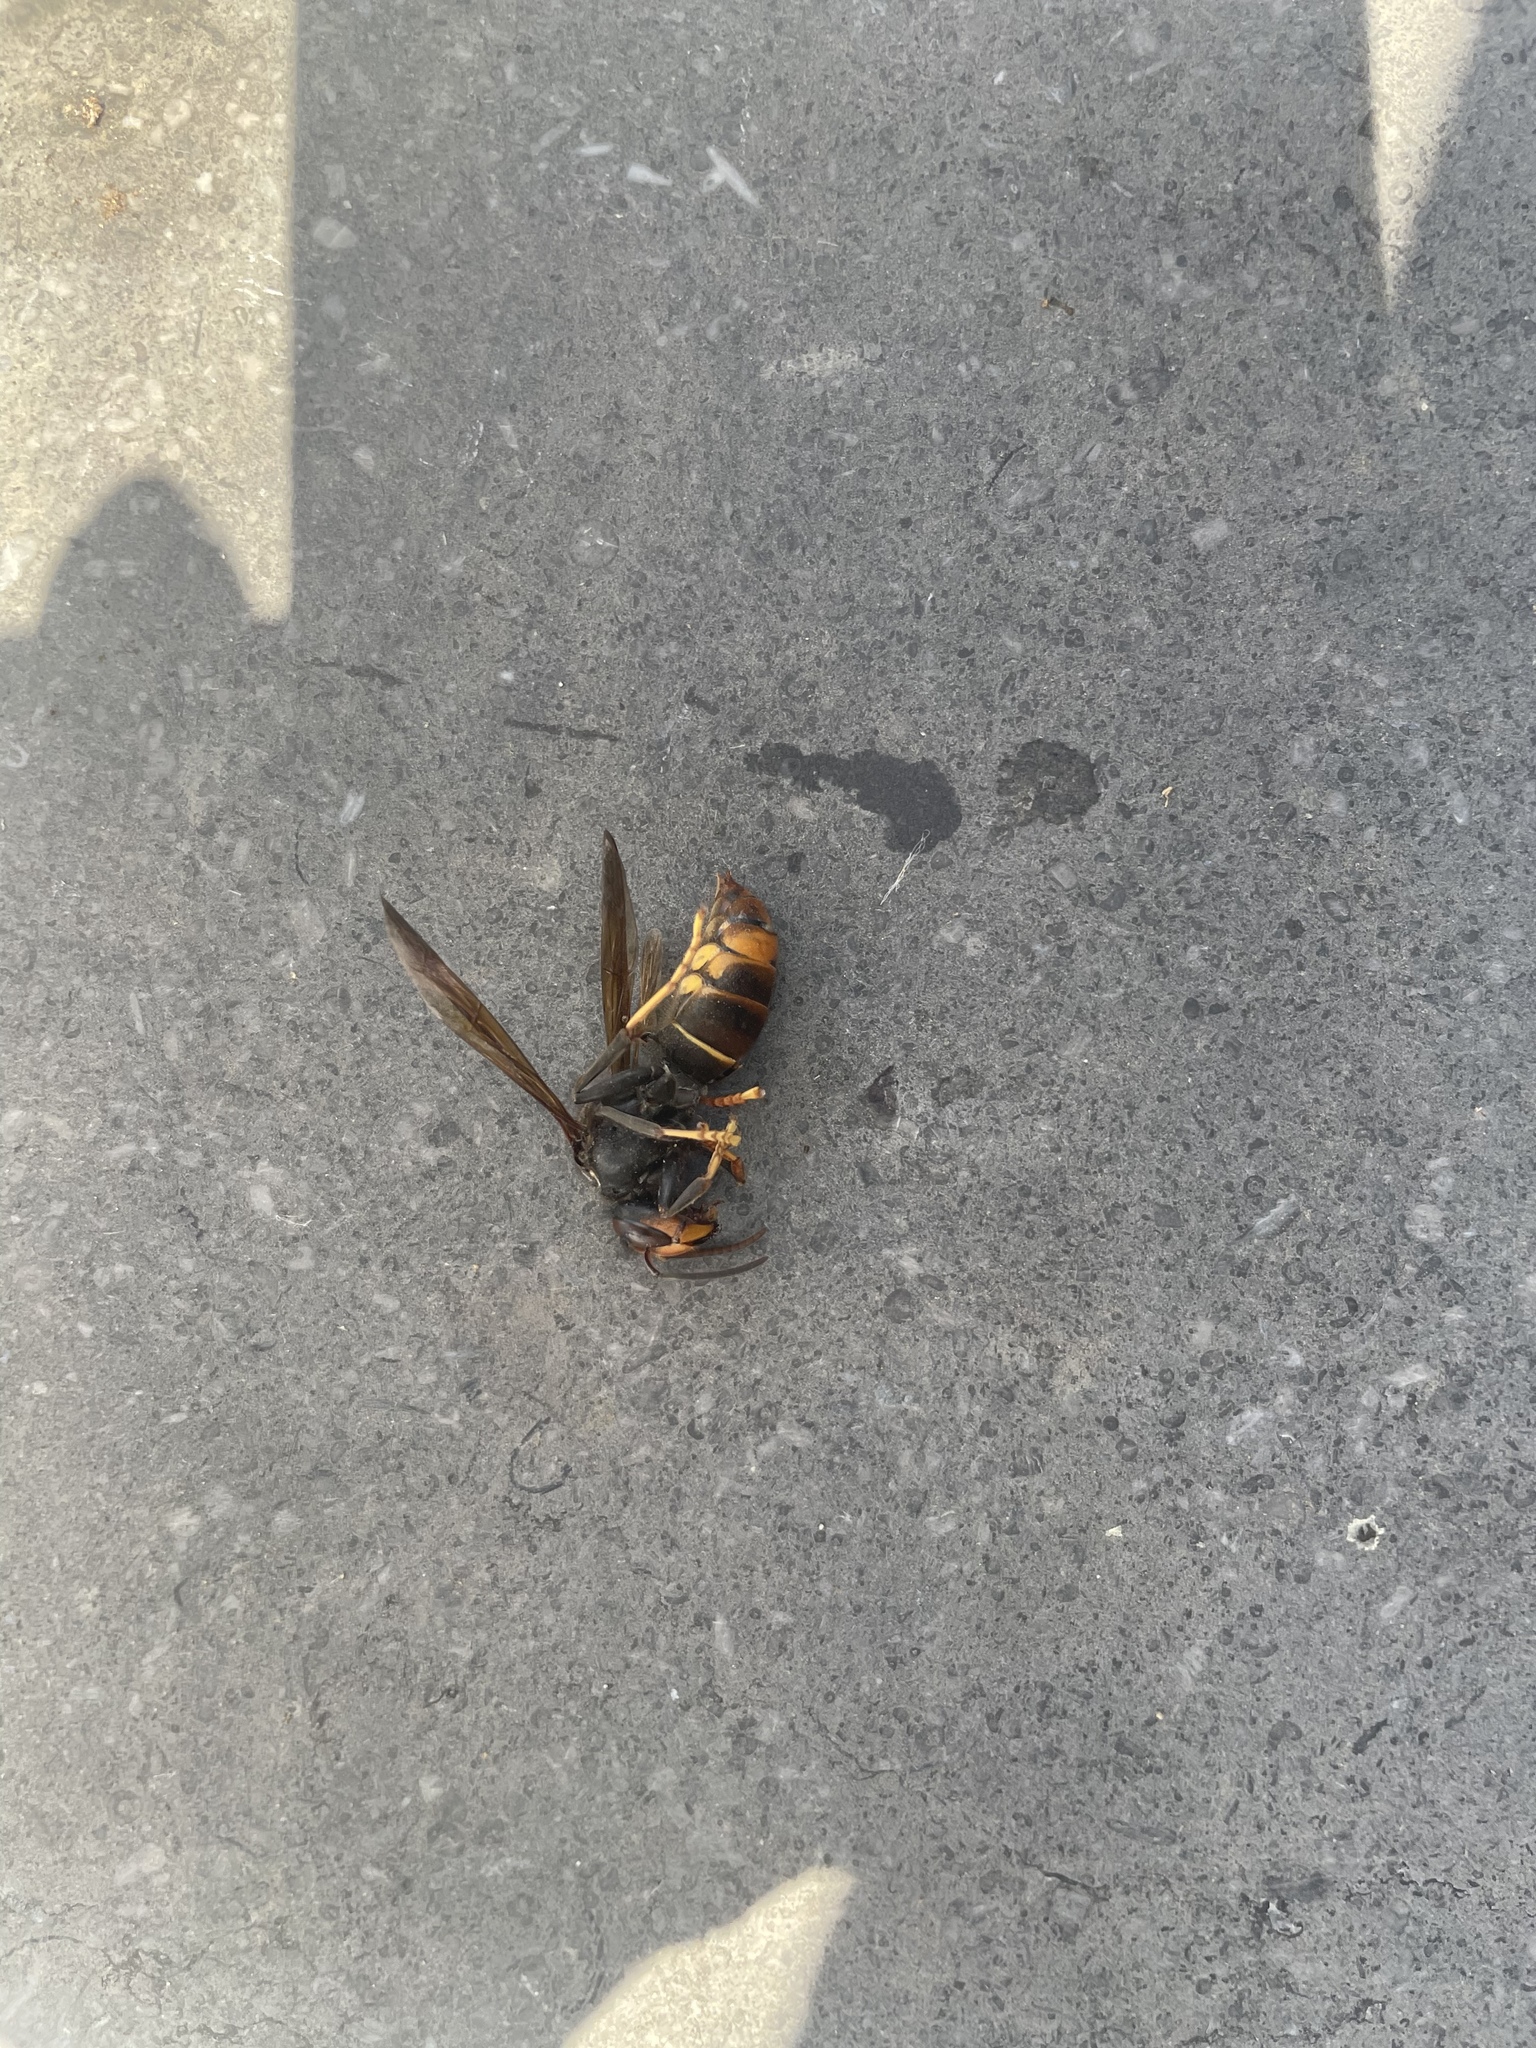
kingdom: Animalia
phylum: Arthropoda
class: Insecta
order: Hymenoptera
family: Vespidae
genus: Vespa
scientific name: Vespa velutina
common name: Asian hornet
